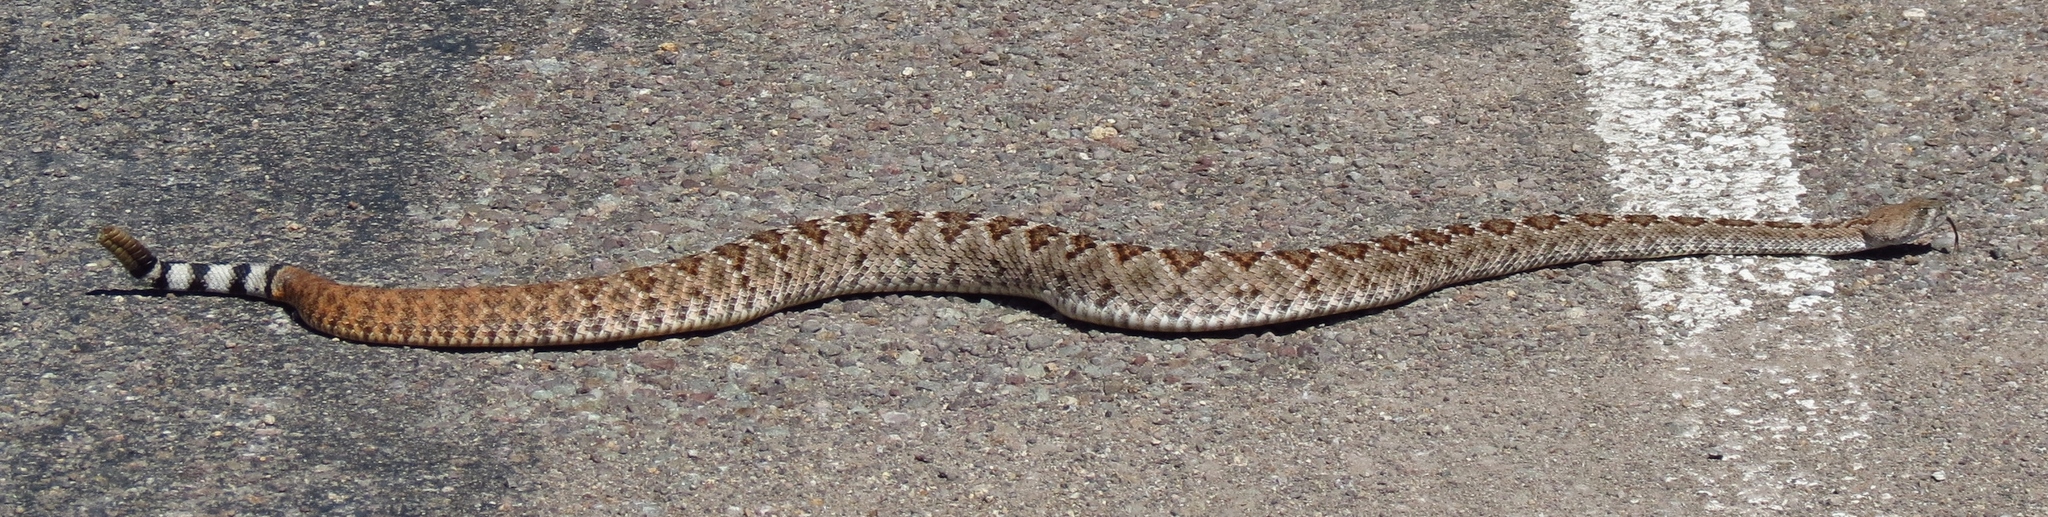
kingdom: Animalia
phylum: Chordata
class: Squamata
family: Viperidae
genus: Crotalus
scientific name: Crotalus atrox
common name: Western diamond-backed rattlesnake
